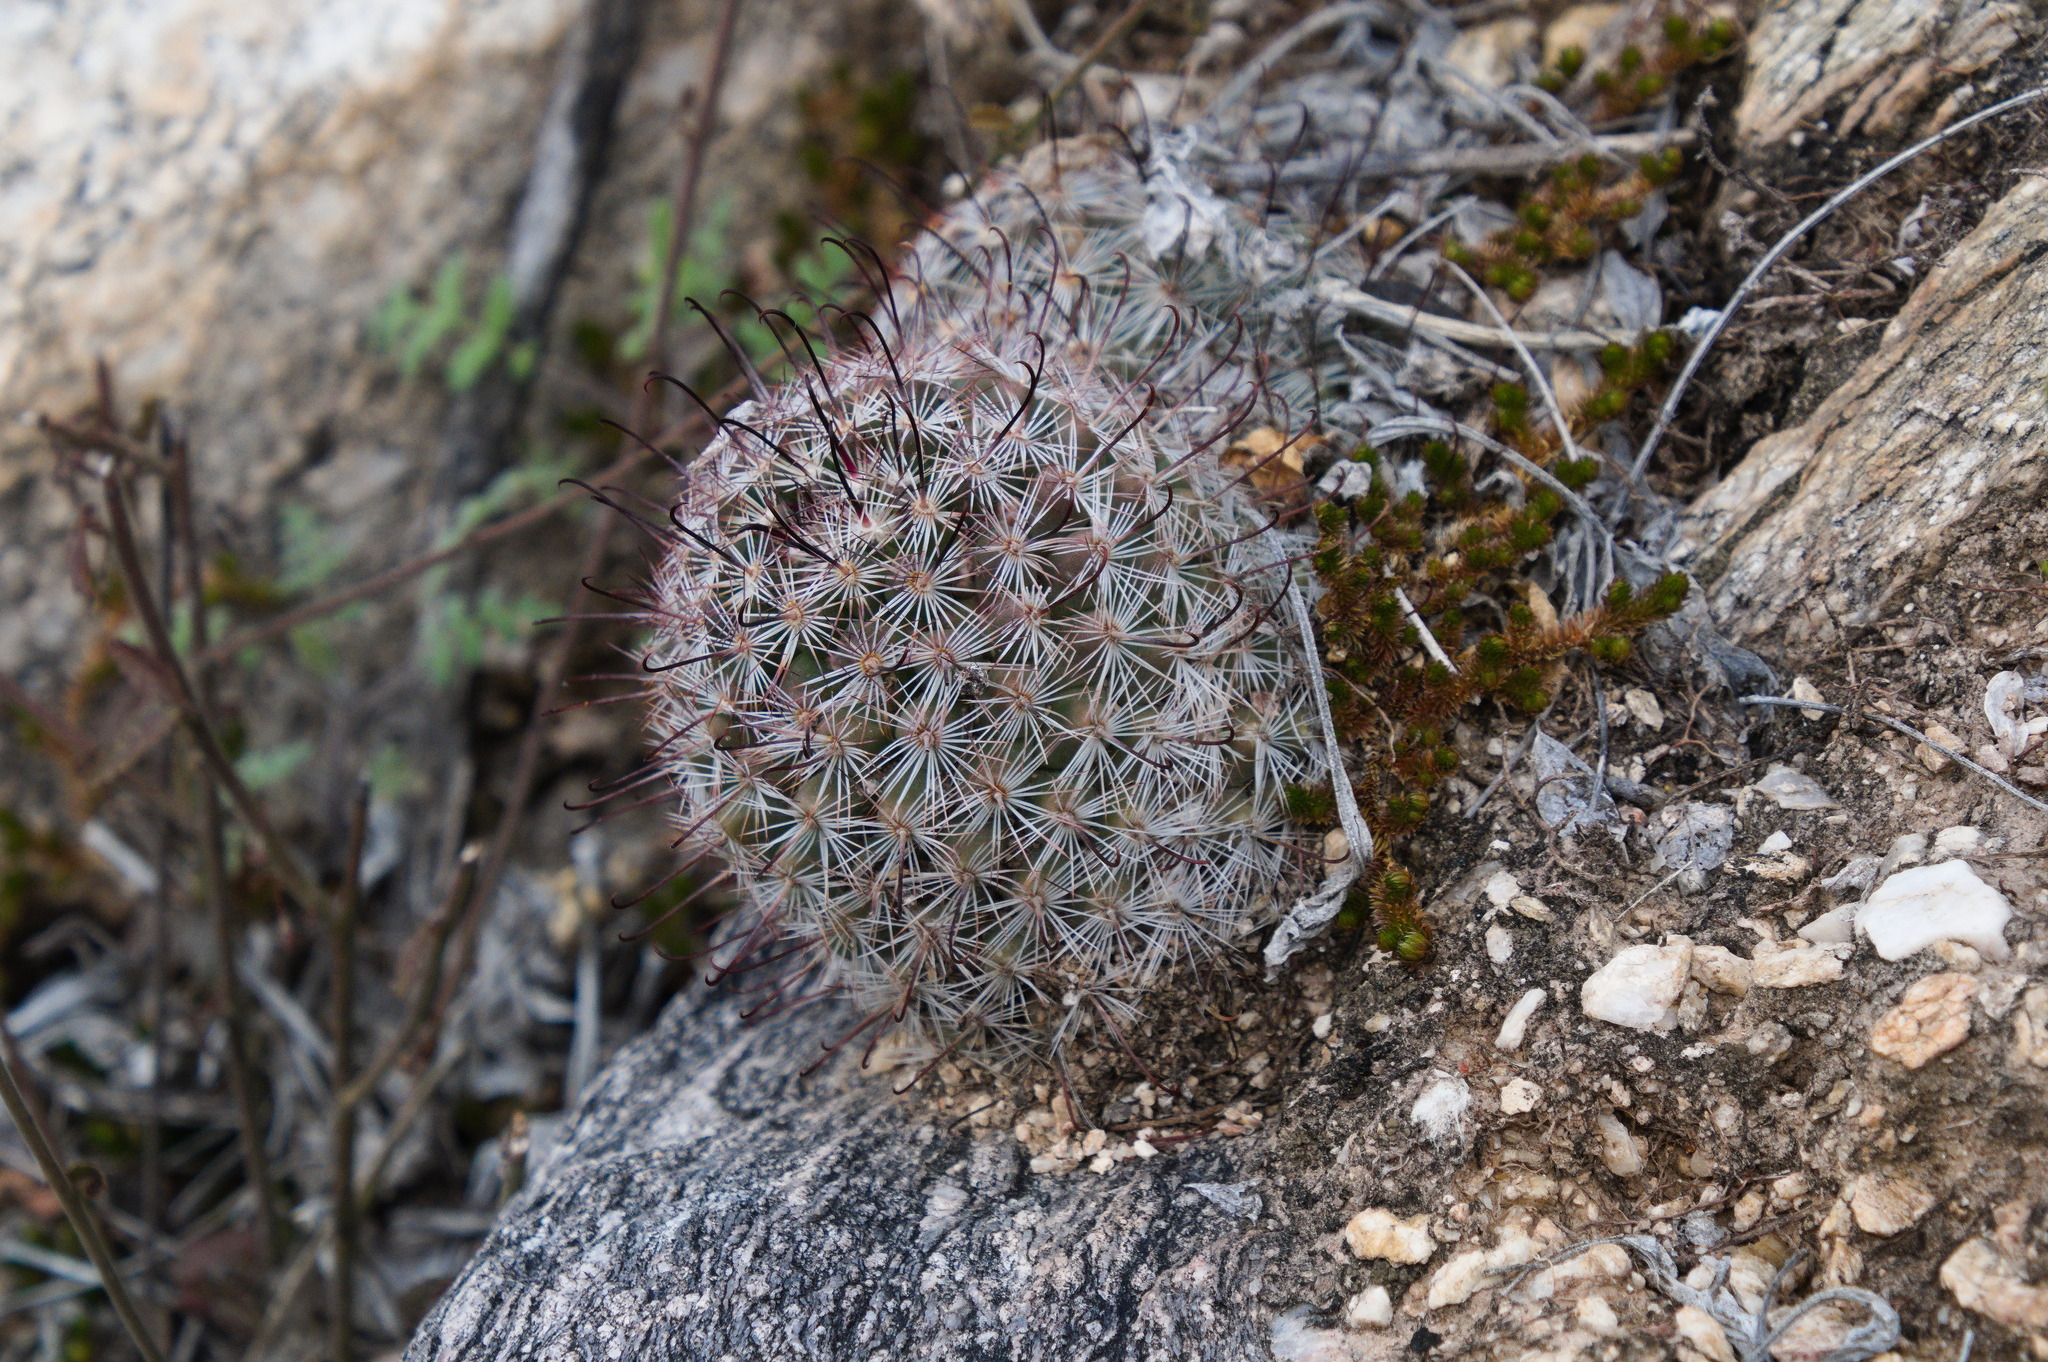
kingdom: Plantae
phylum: Tracheophyta
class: Magnoliopsida
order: Caryophyllales
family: Cactaceae
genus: Cochemiea
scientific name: Cochemiea grahamii
